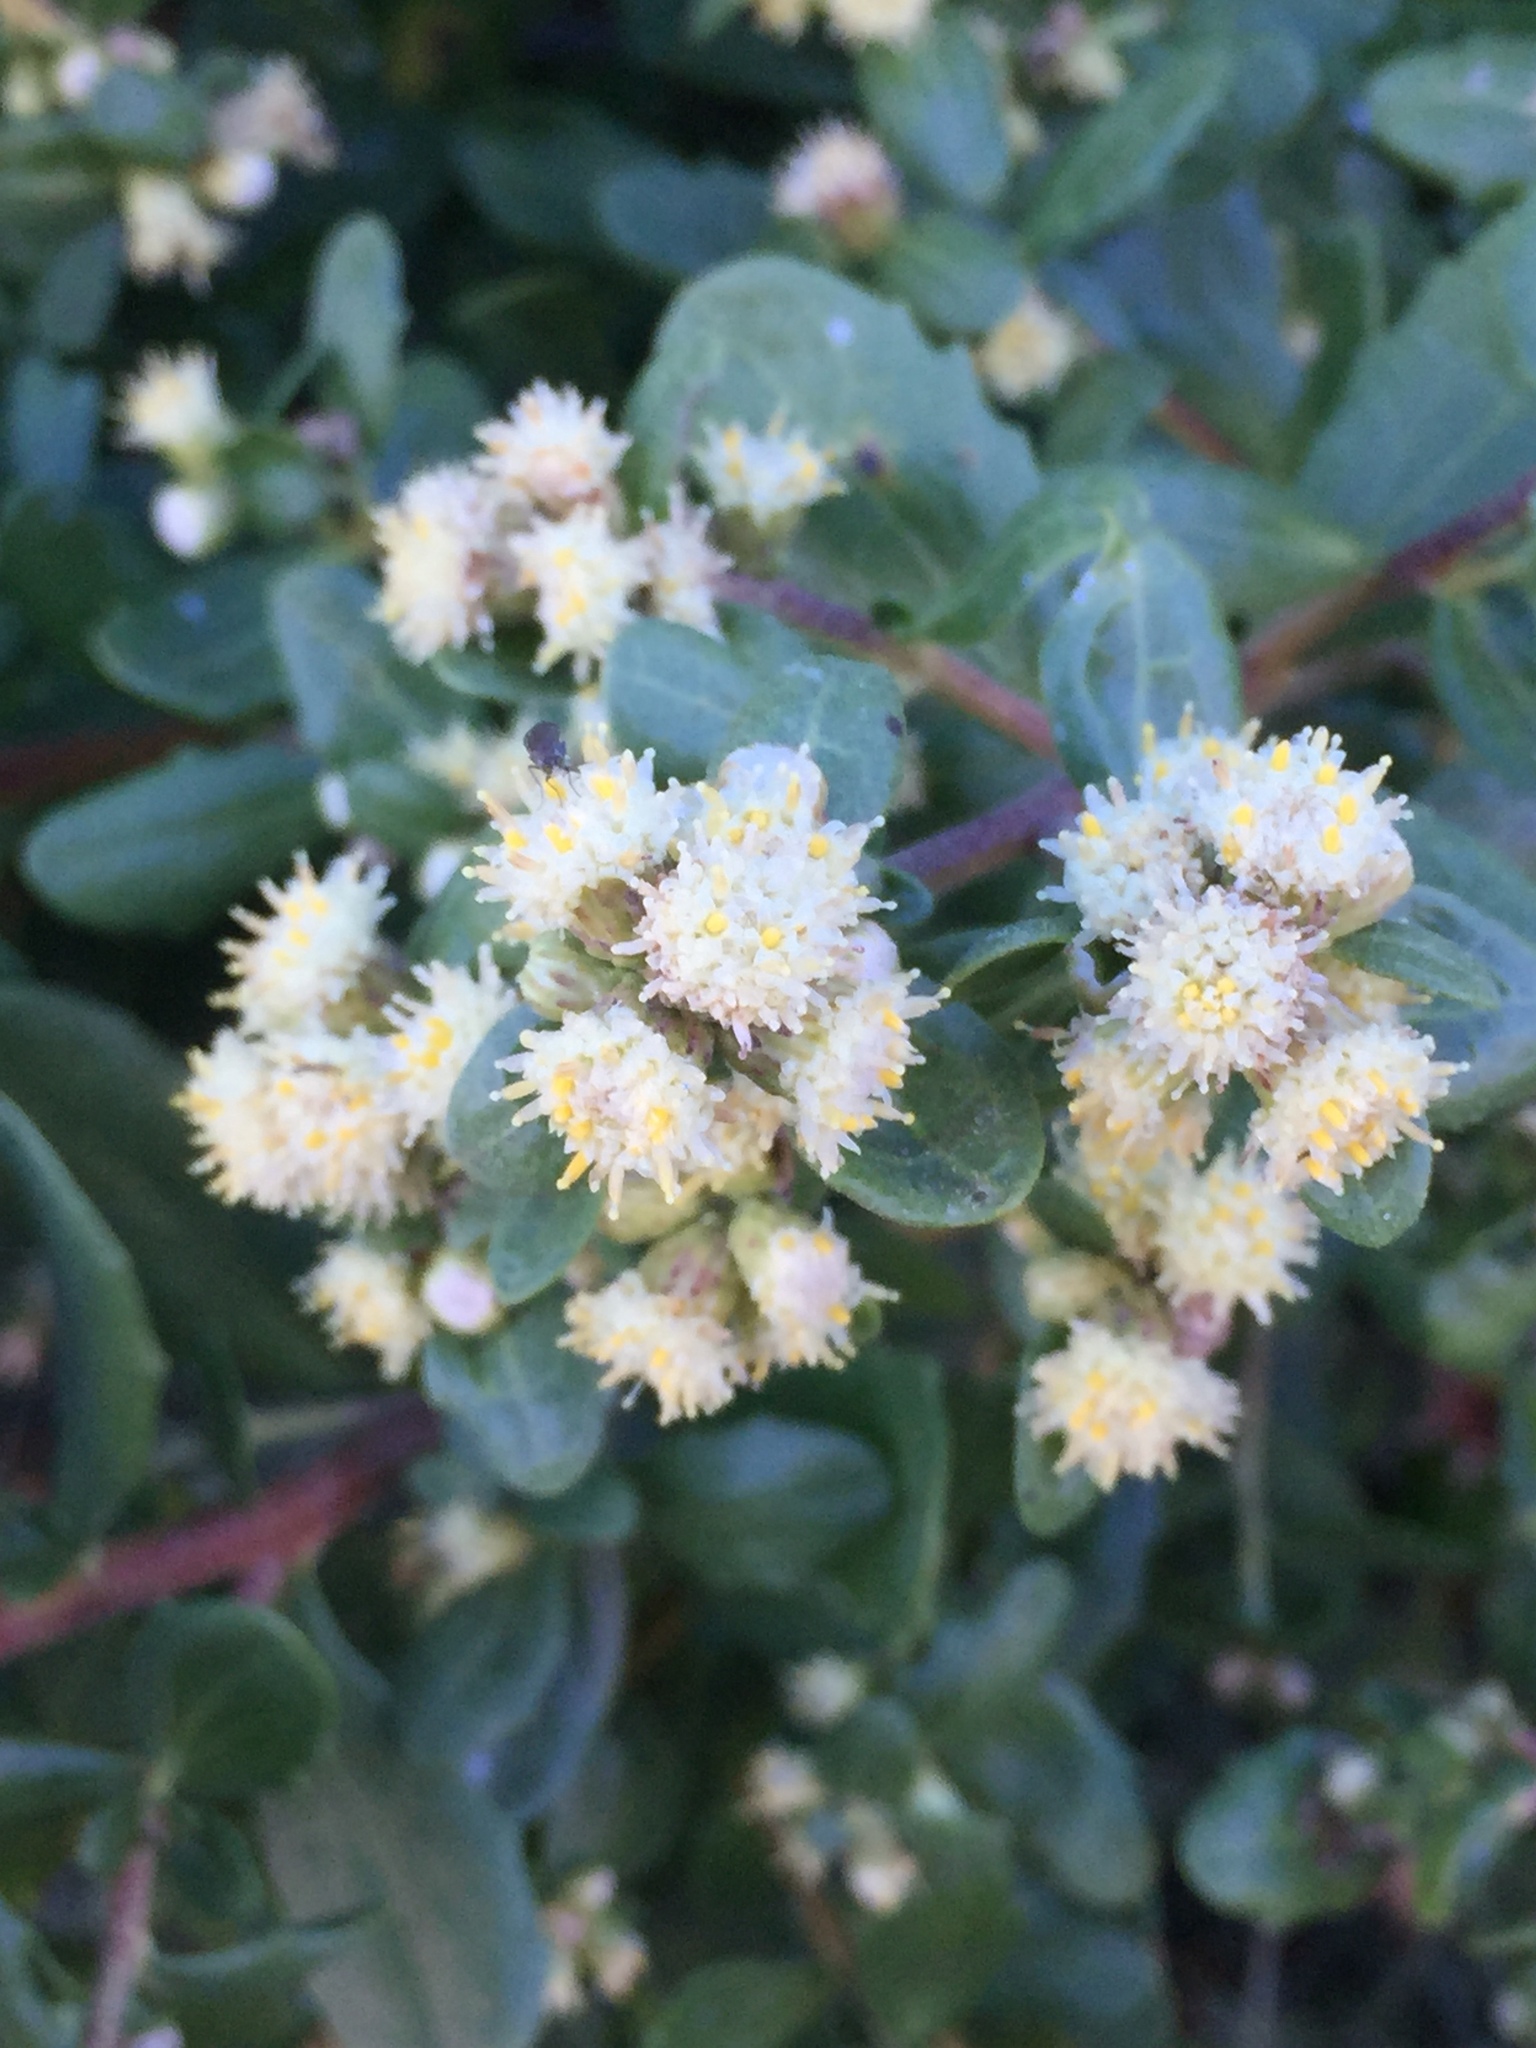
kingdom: Plantae
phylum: Tracheophyta
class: Magnoliopsida
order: Asterales
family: Asteraceae
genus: Baccharis
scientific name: Baccharis pilularis
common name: Coyotebrush
